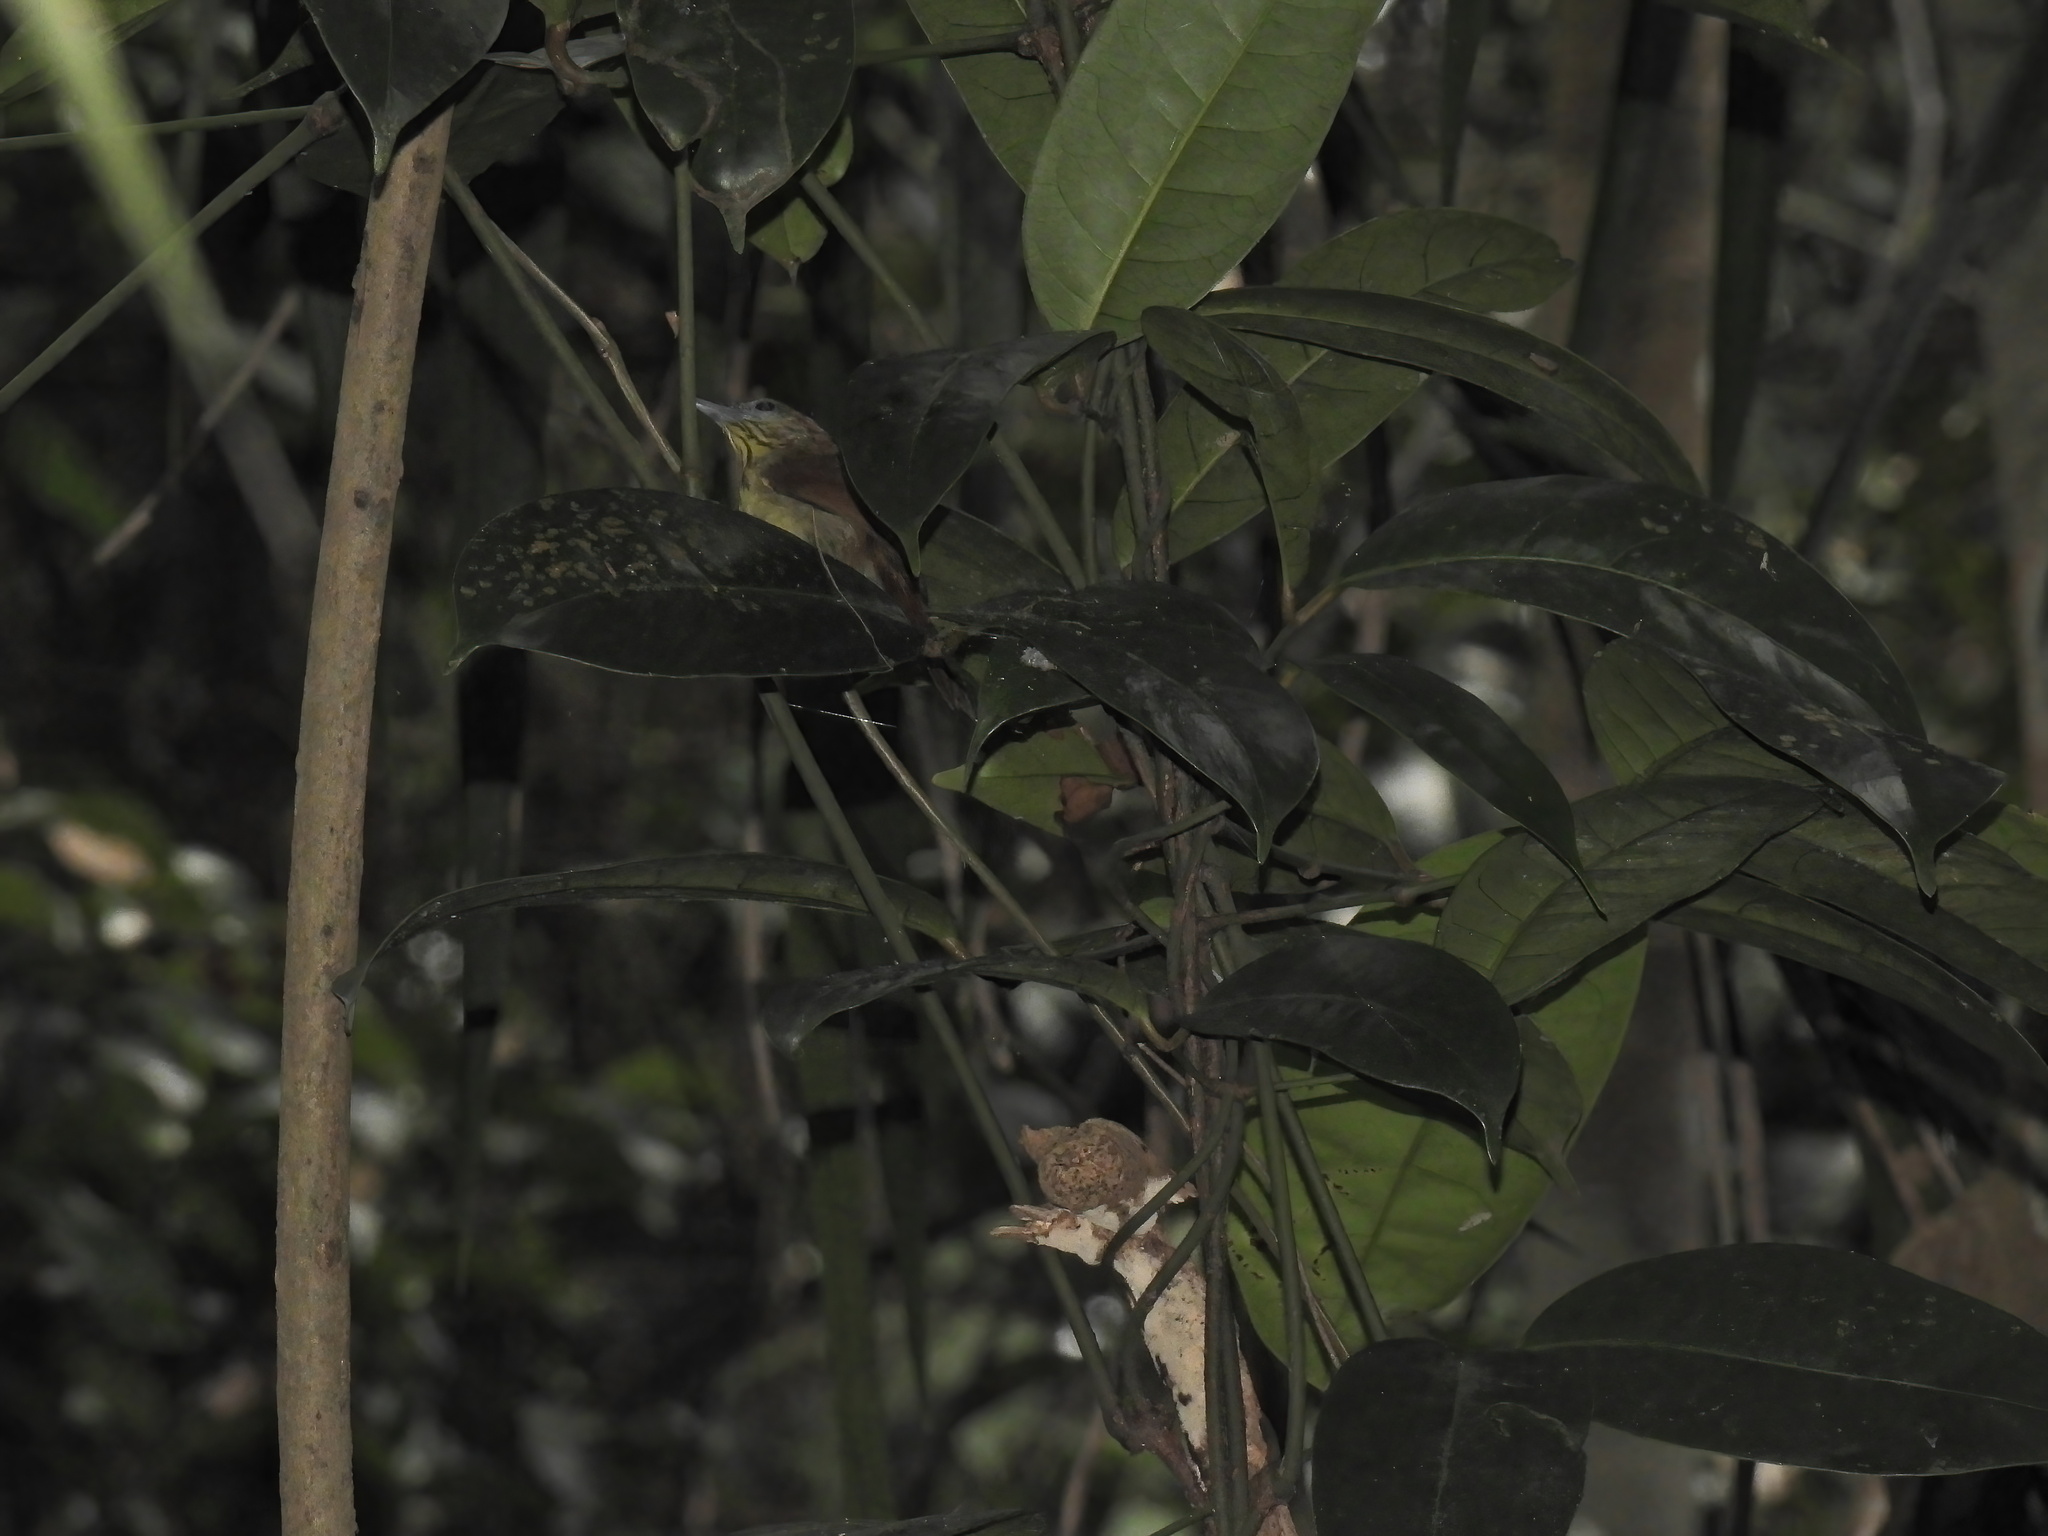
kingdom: Animalia
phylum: Chordata
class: Aves
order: Passeriformes
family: Timaliidae
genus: Macronus
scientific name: Macronus gularis
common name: Striped tit-babbler
